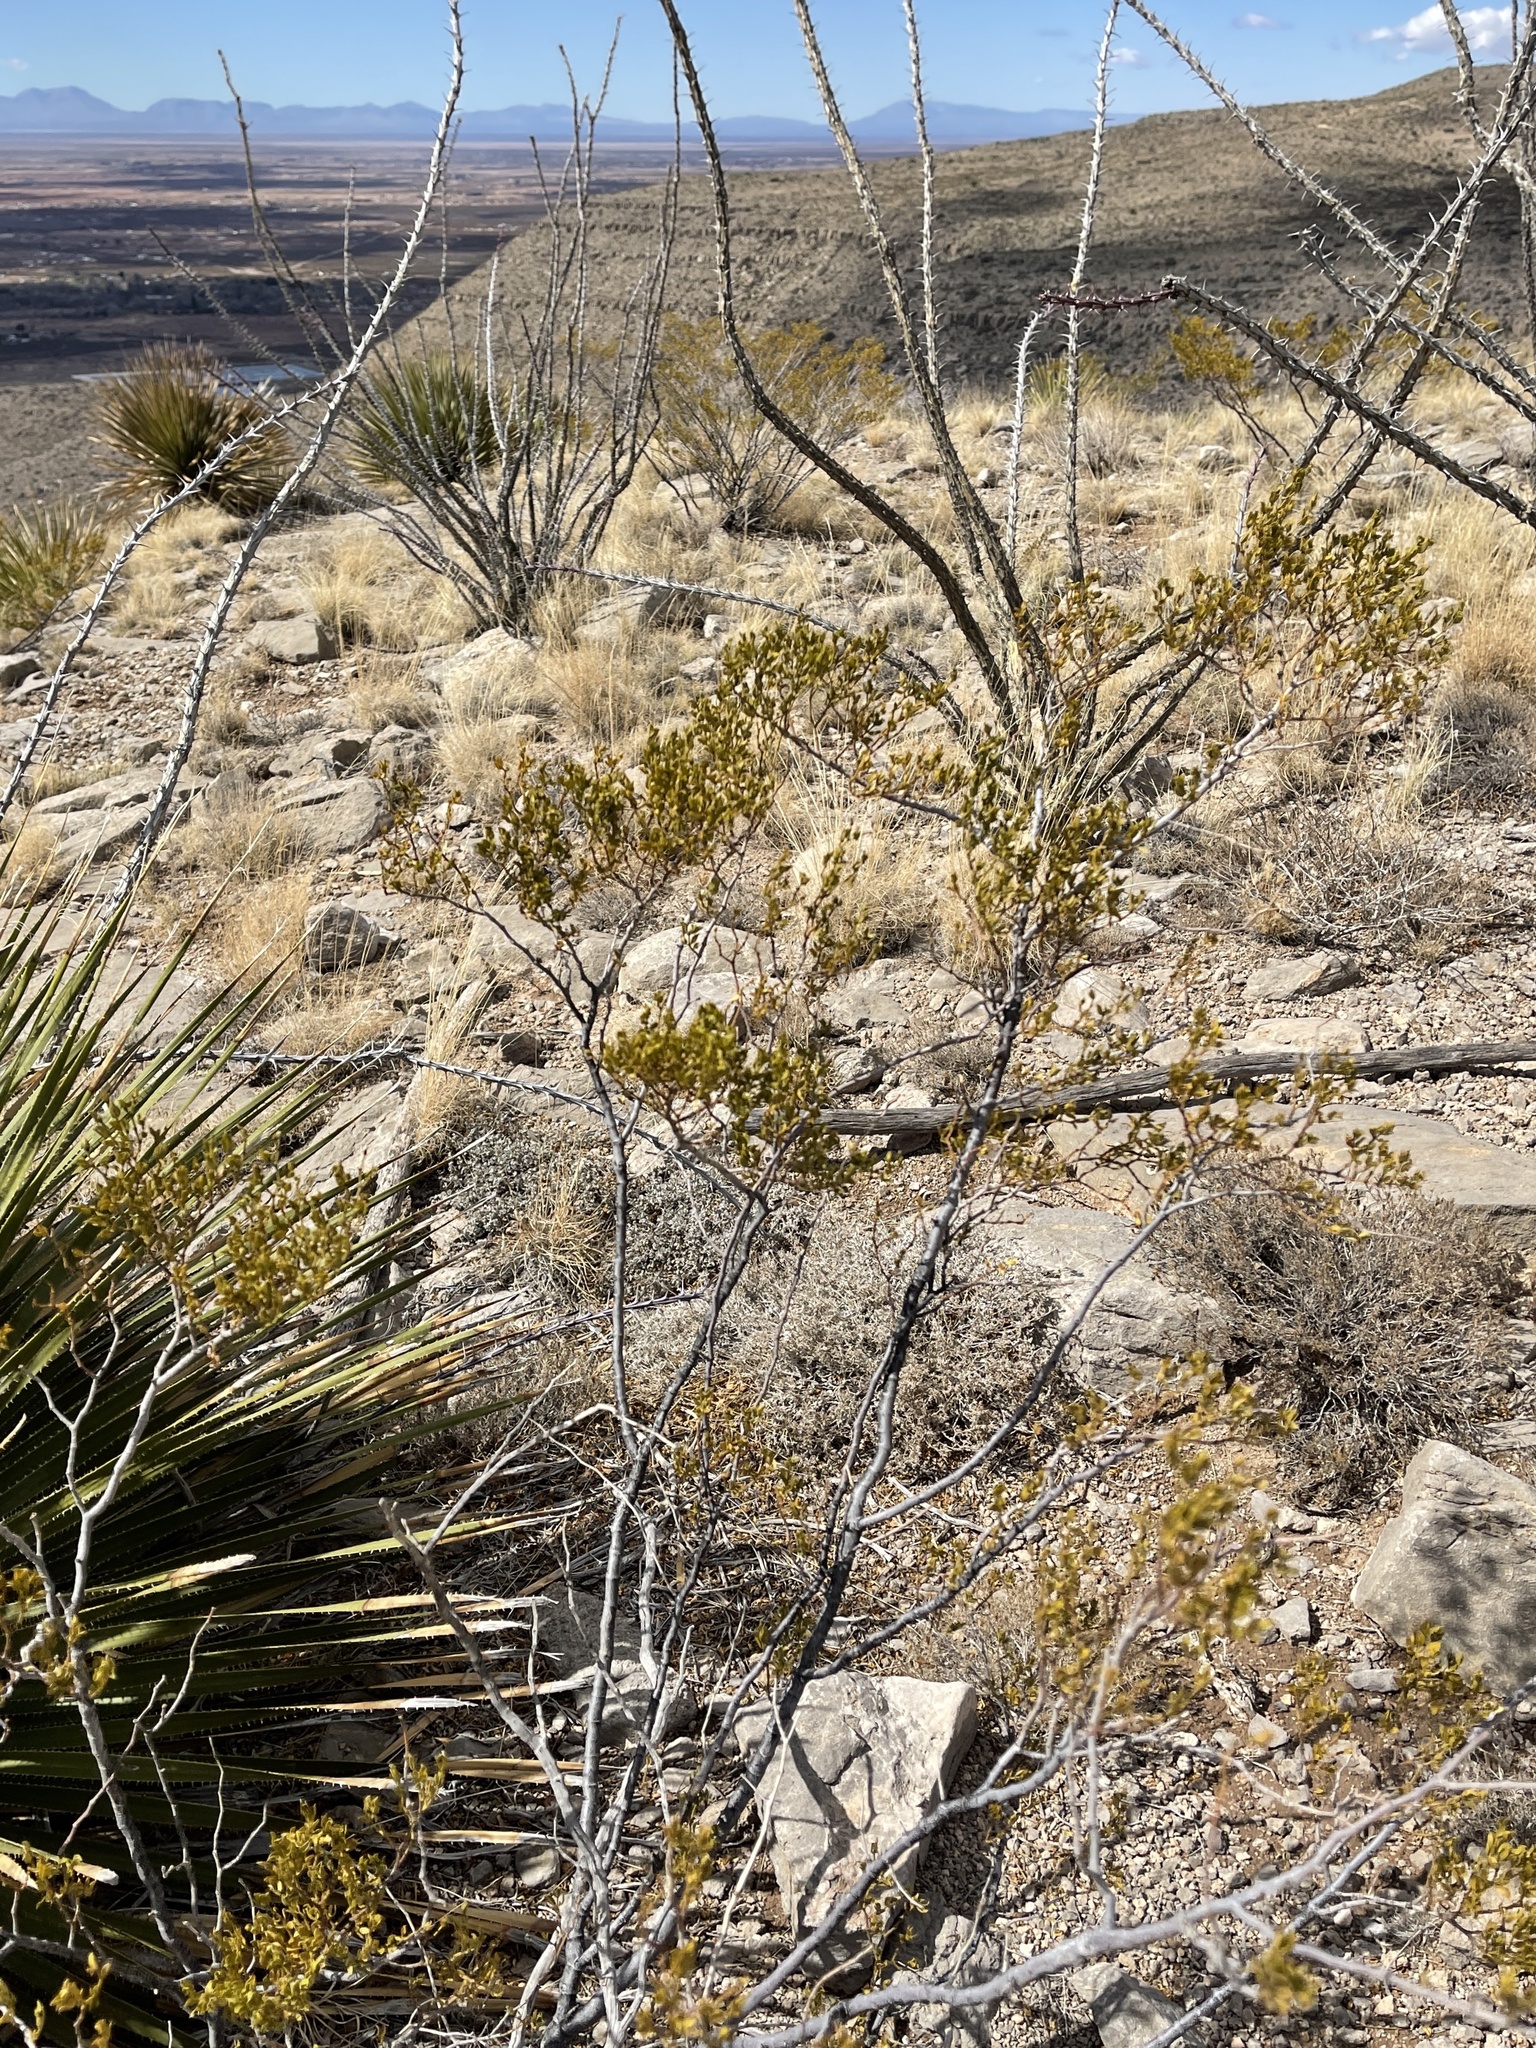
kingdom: Plantae
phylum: Tracheophyta
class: Magnoliopsida
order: Zygophyllales
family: Zygophyllaceae
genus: Larrea
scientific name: Larrea tridentata
